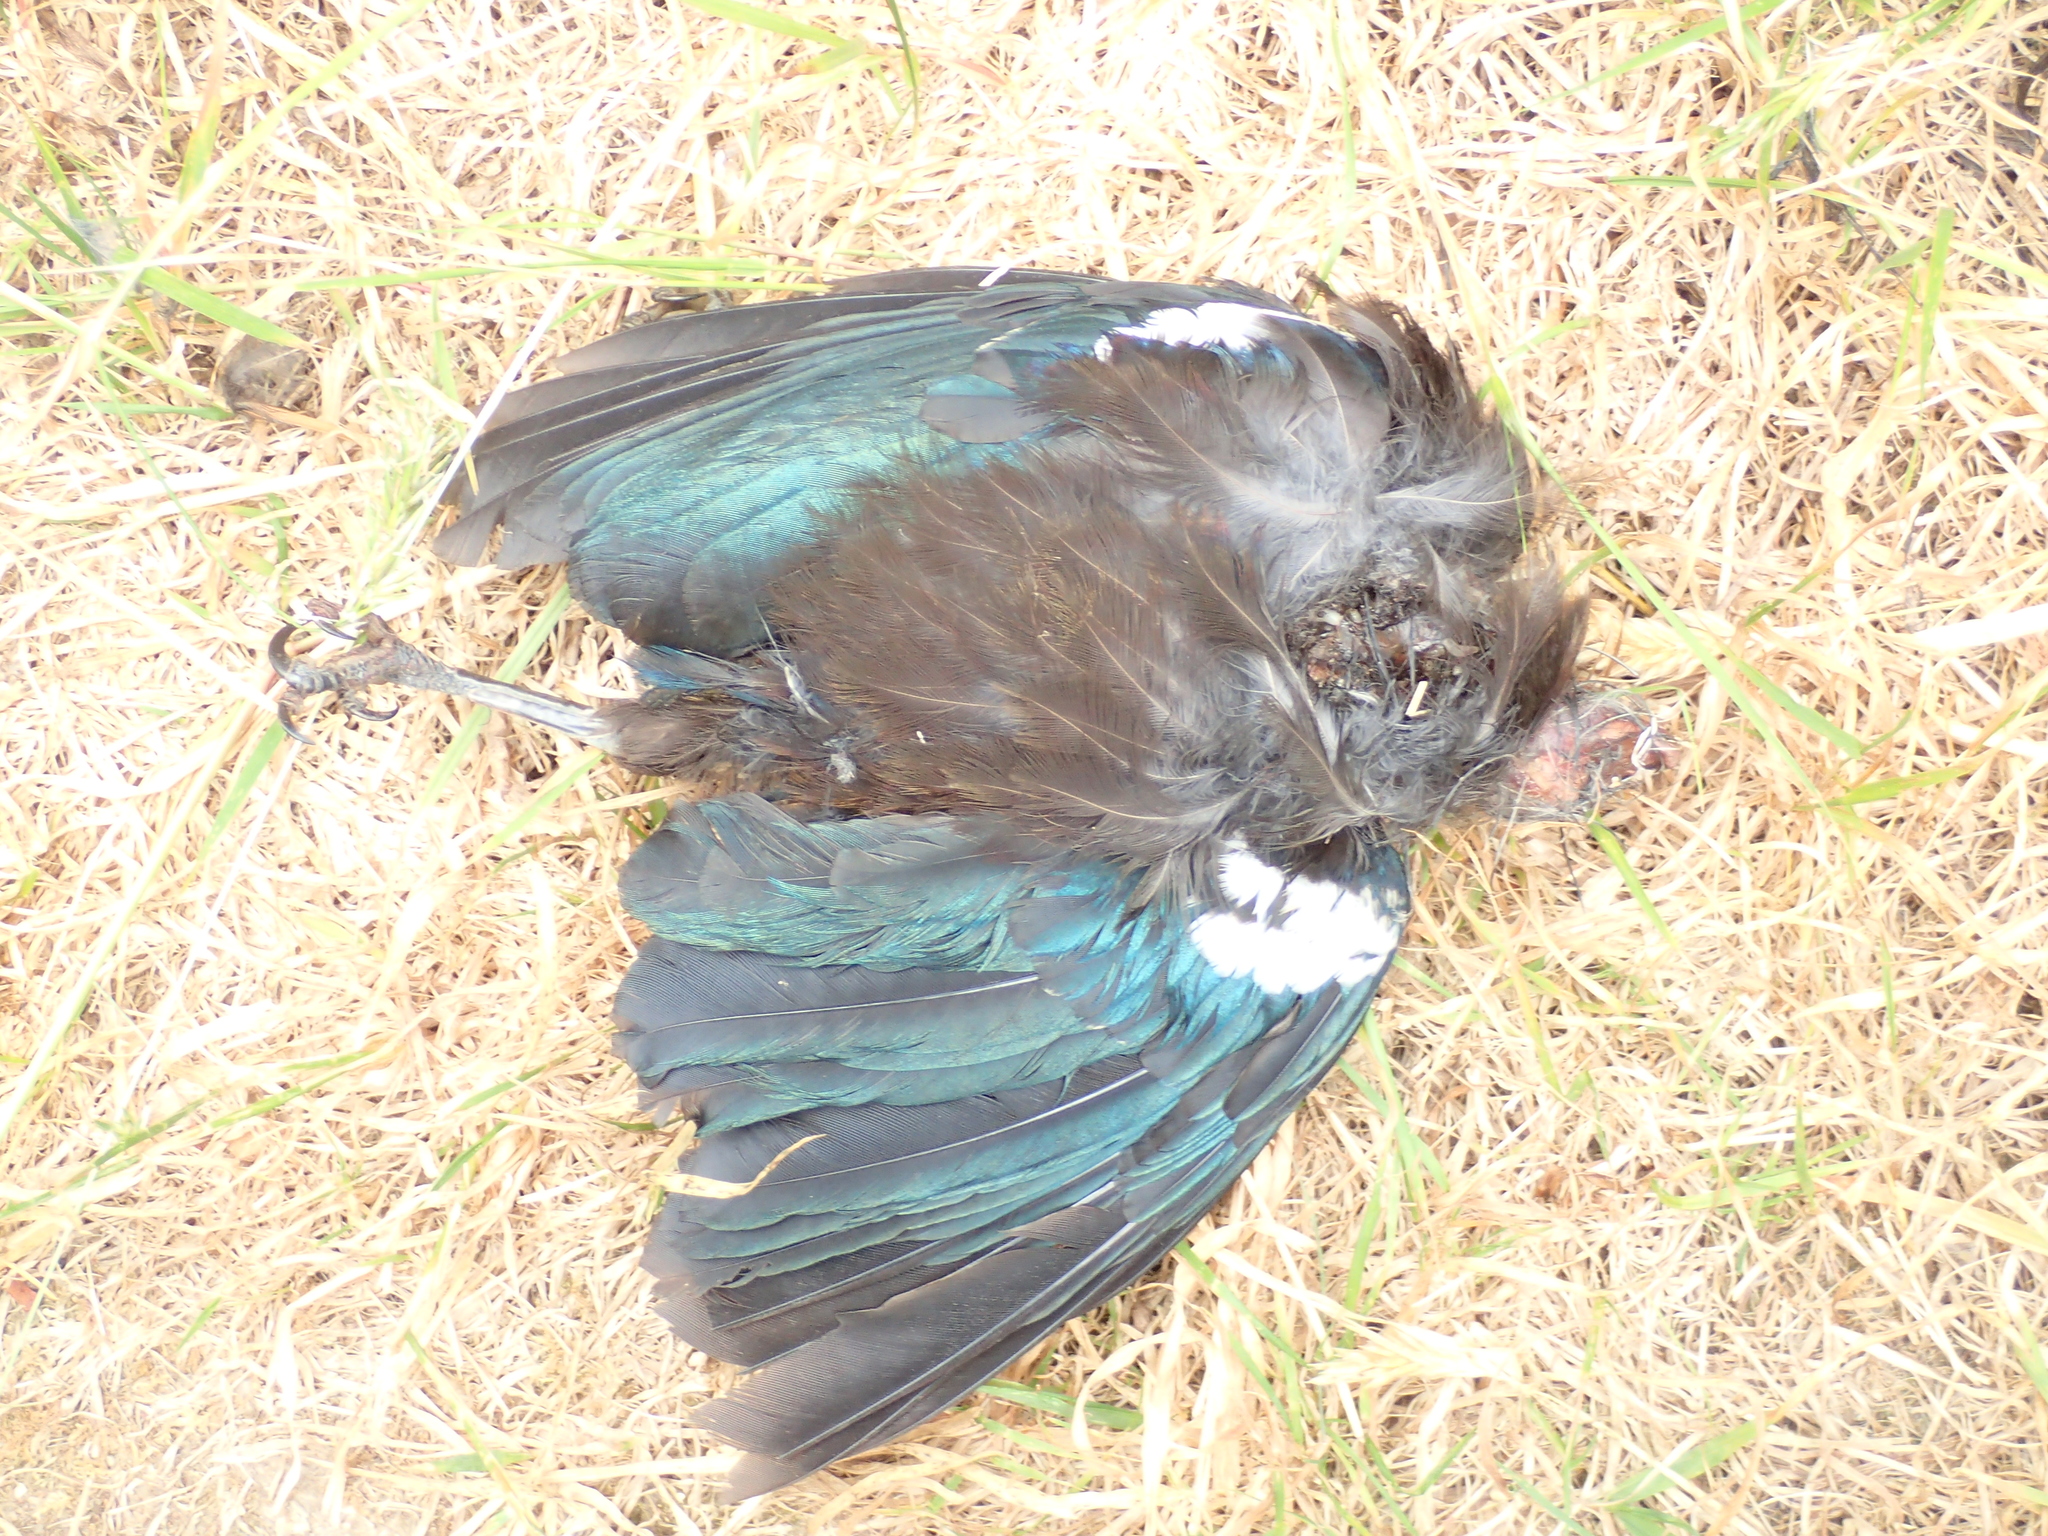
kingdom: Animalia
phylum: Chordata
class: Aves
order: Passeriformes
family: Meliphagidae
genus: Prosthemadera
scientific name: Prosthemadera novaeseelandiae
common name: Tui
